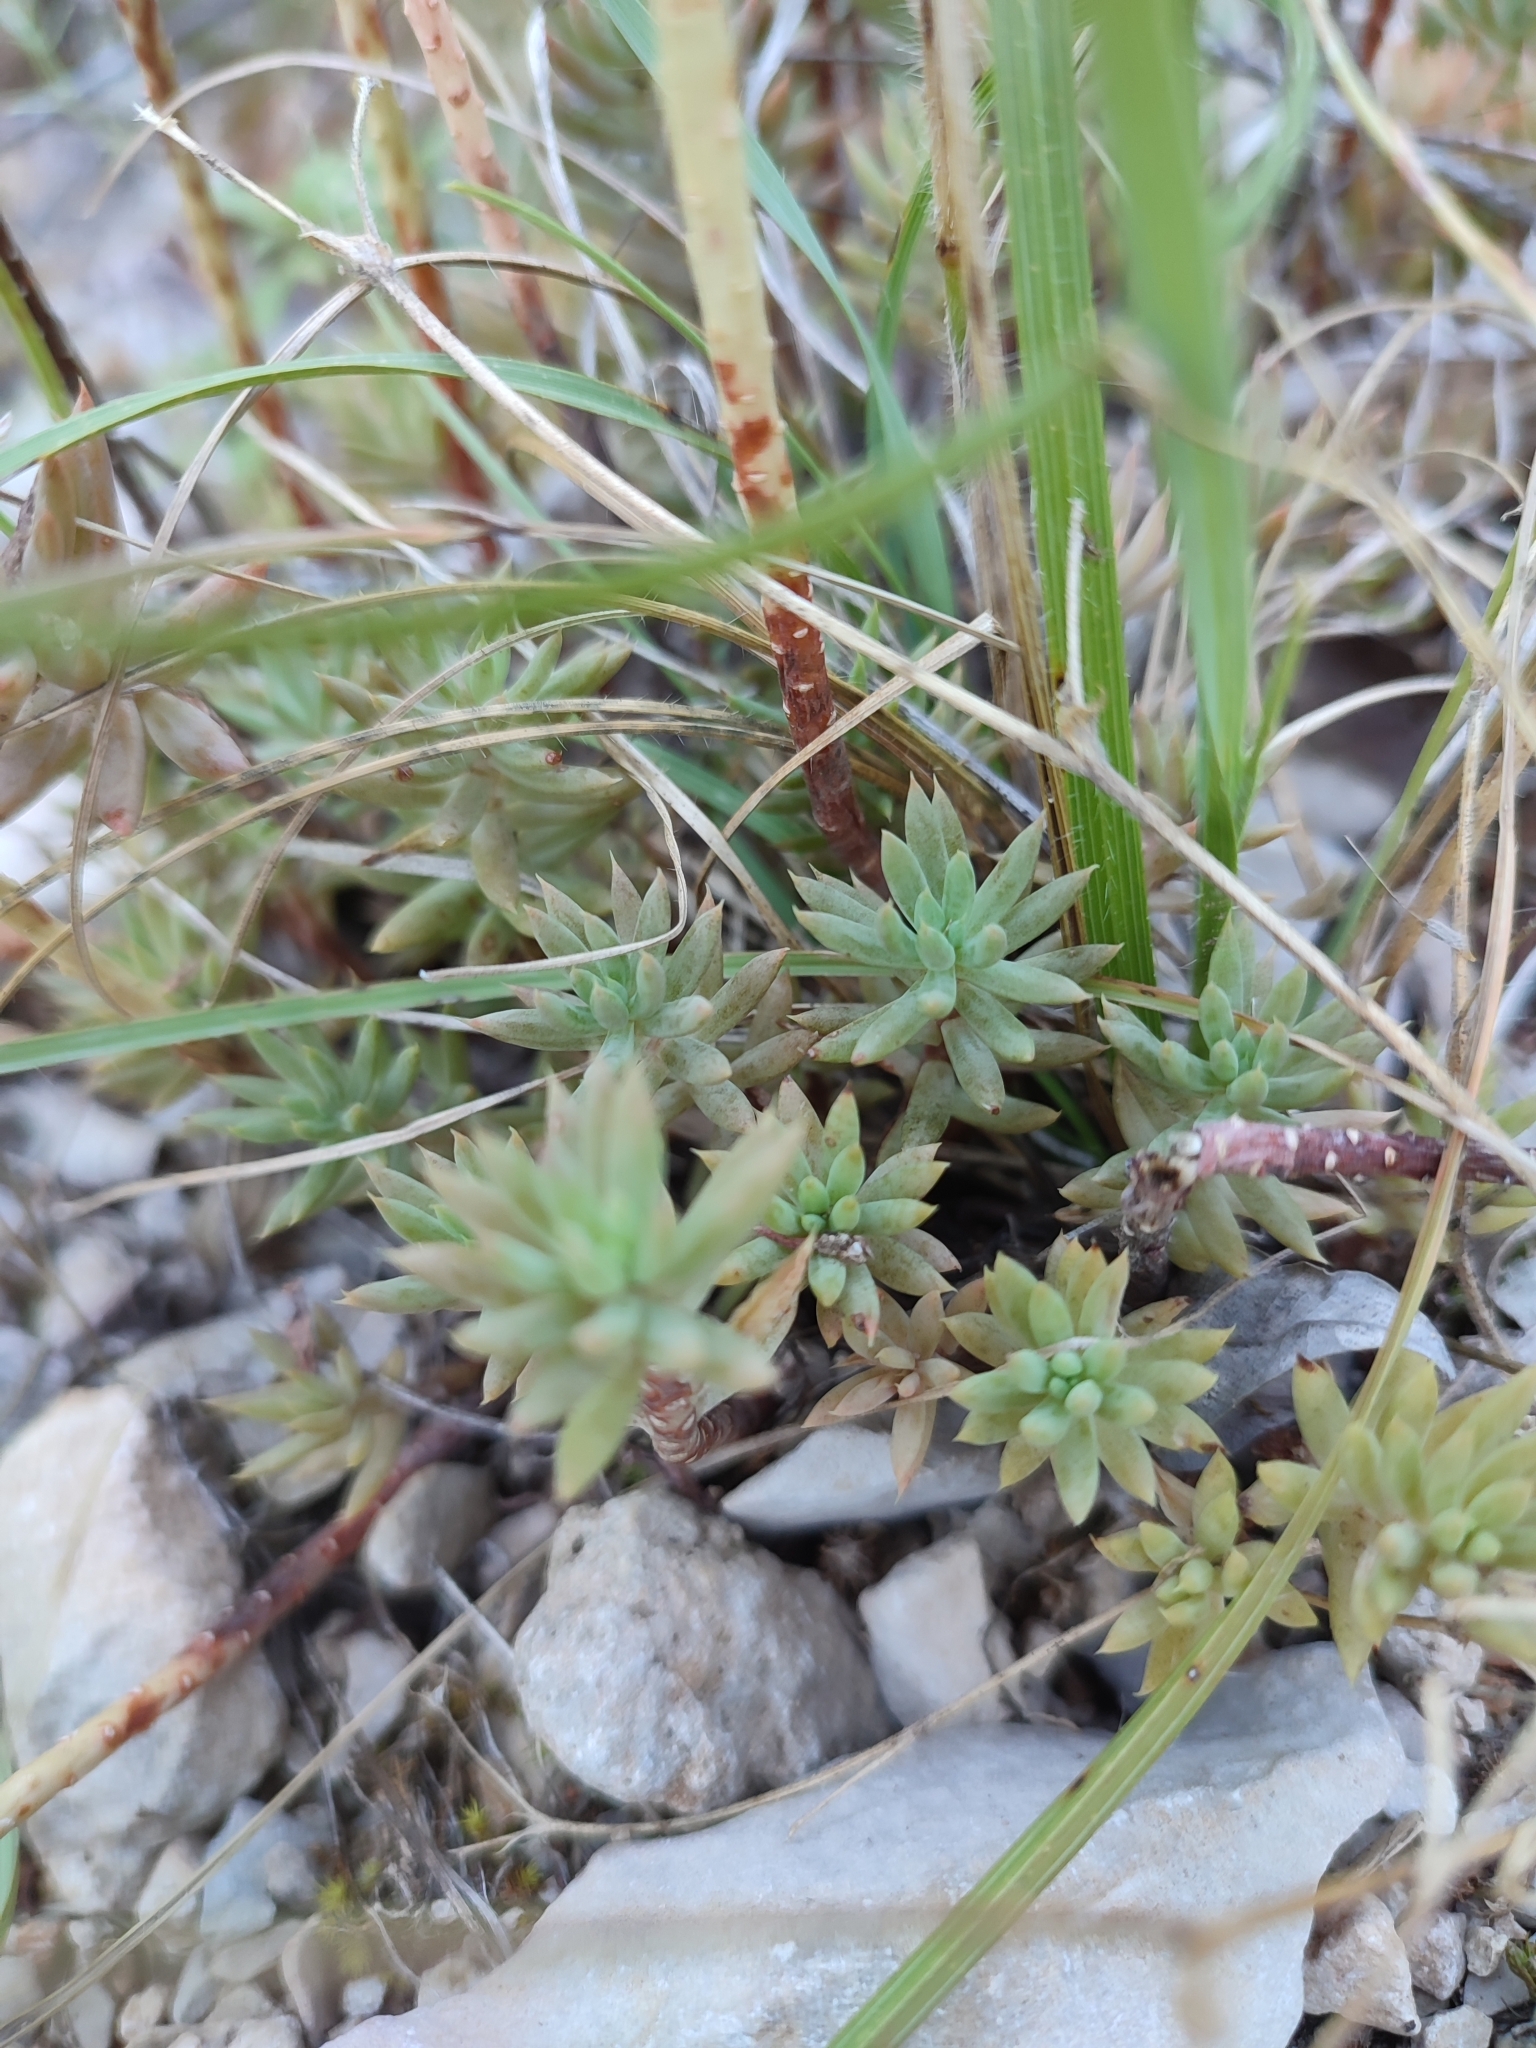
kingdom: Plantae
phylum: Tracheophyta
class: Magnoliopsida
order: Saxifragales
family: Crassulaceae
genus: Petrosedum
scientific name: Petrosedum sediforme
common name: Pale stonecrop
